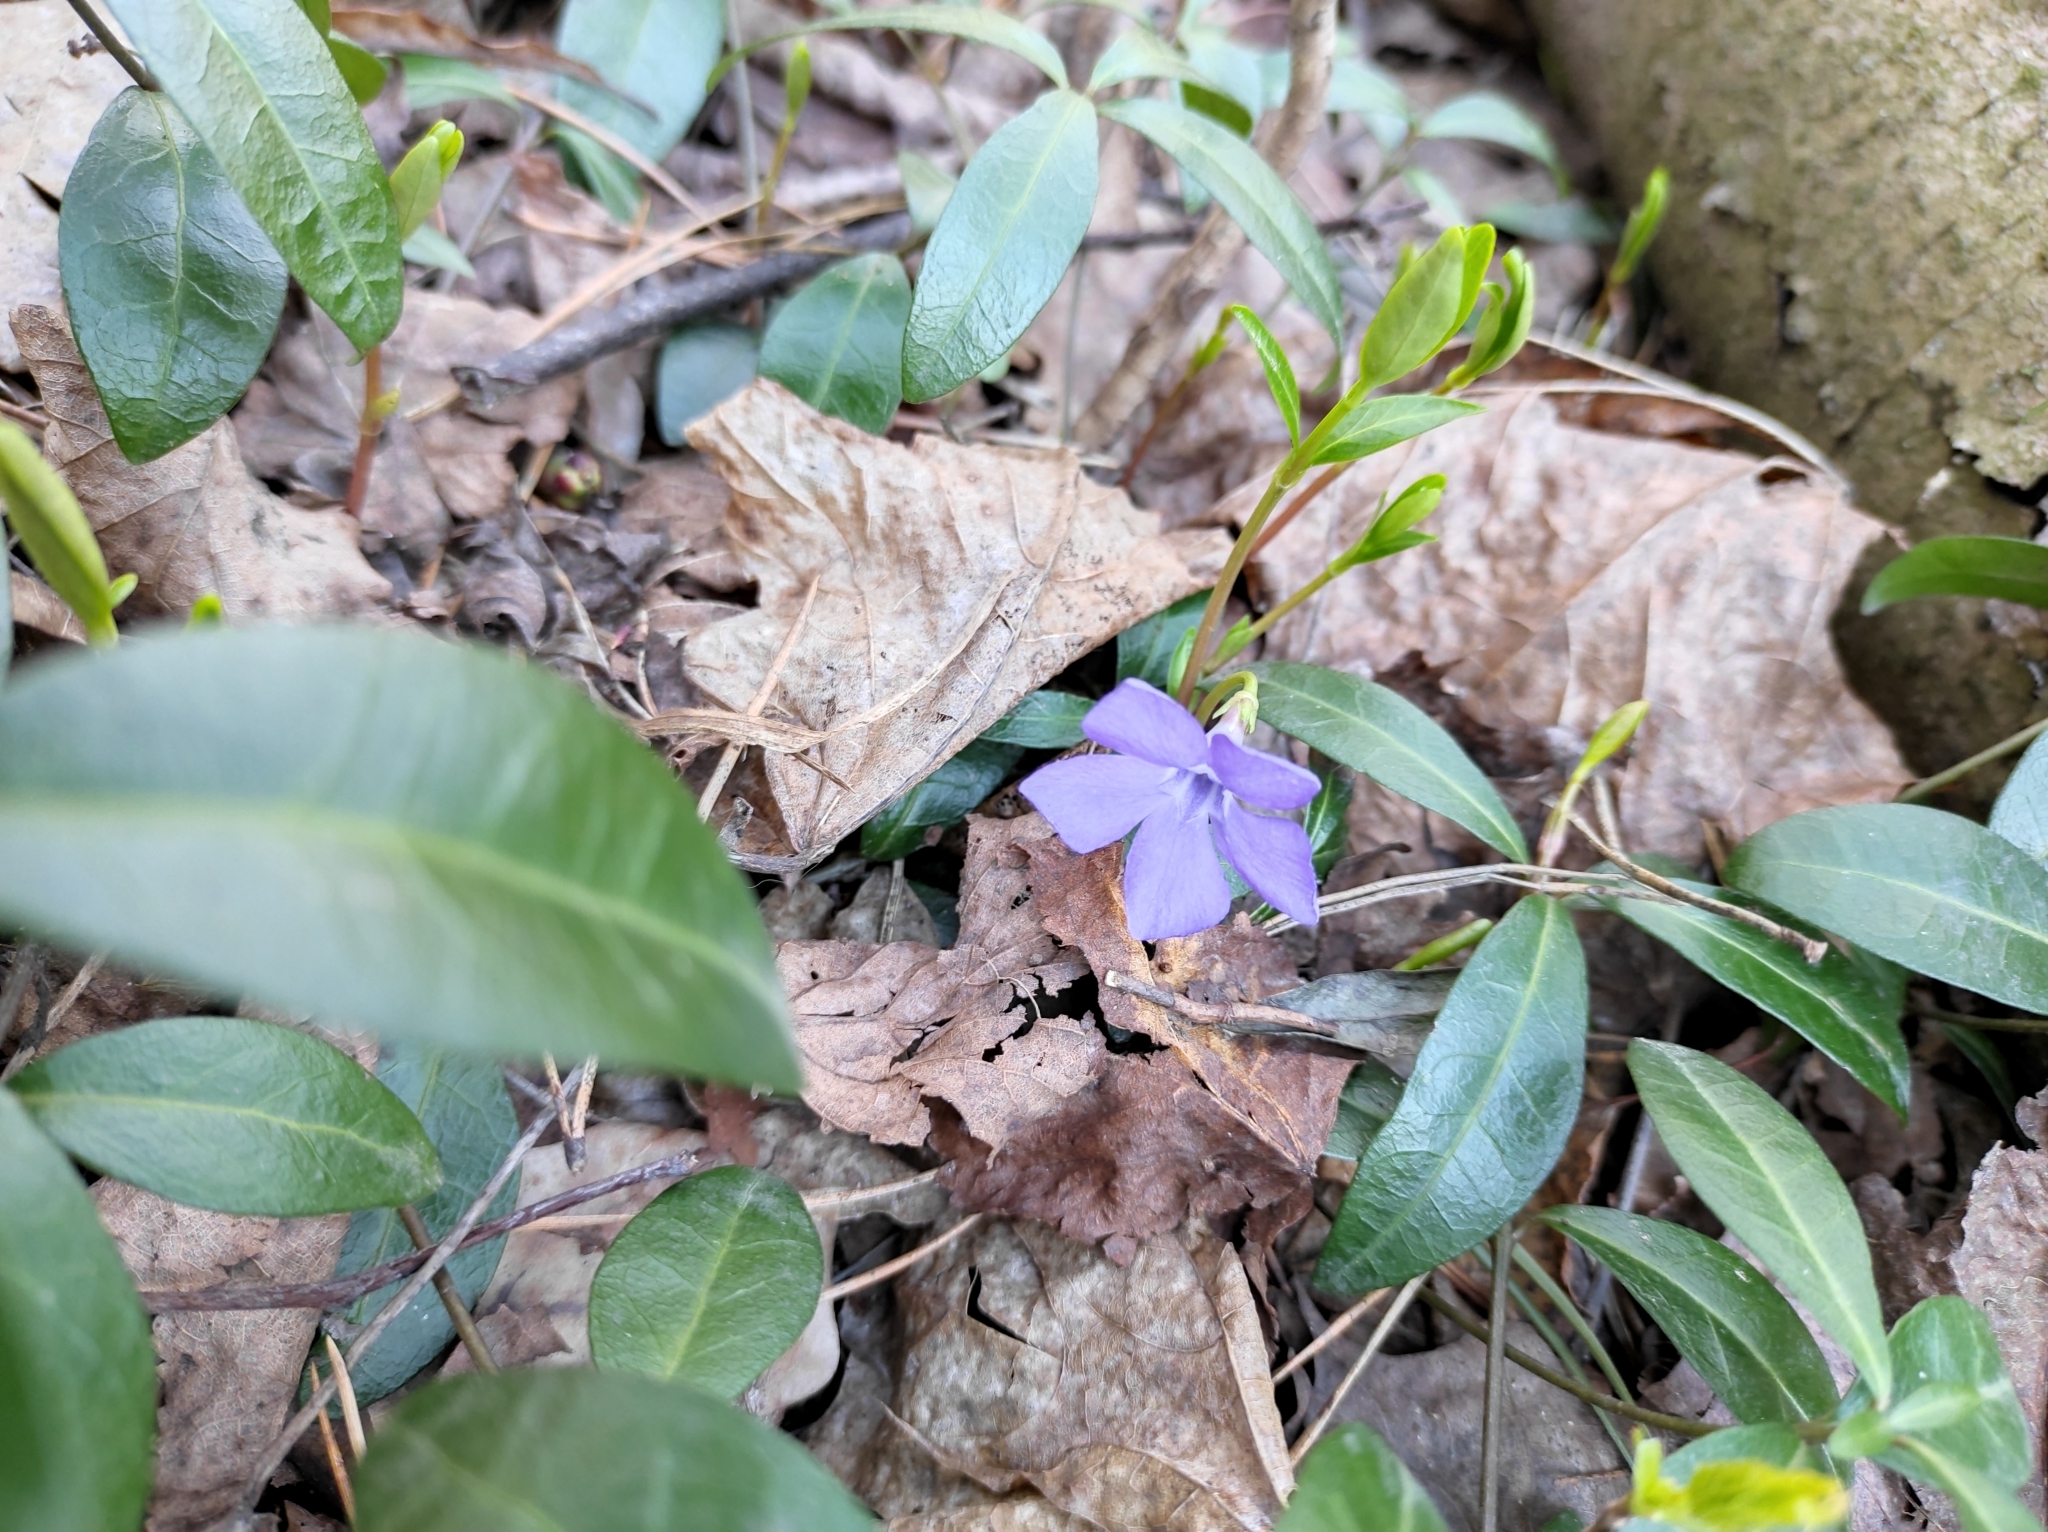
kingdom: Plantae
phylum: Tracheophyta
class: Magnoliopsida
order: Gentianales
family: Apocynaceae
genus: Vinca
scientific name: Vinca minor
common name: Lesser periwinkle
